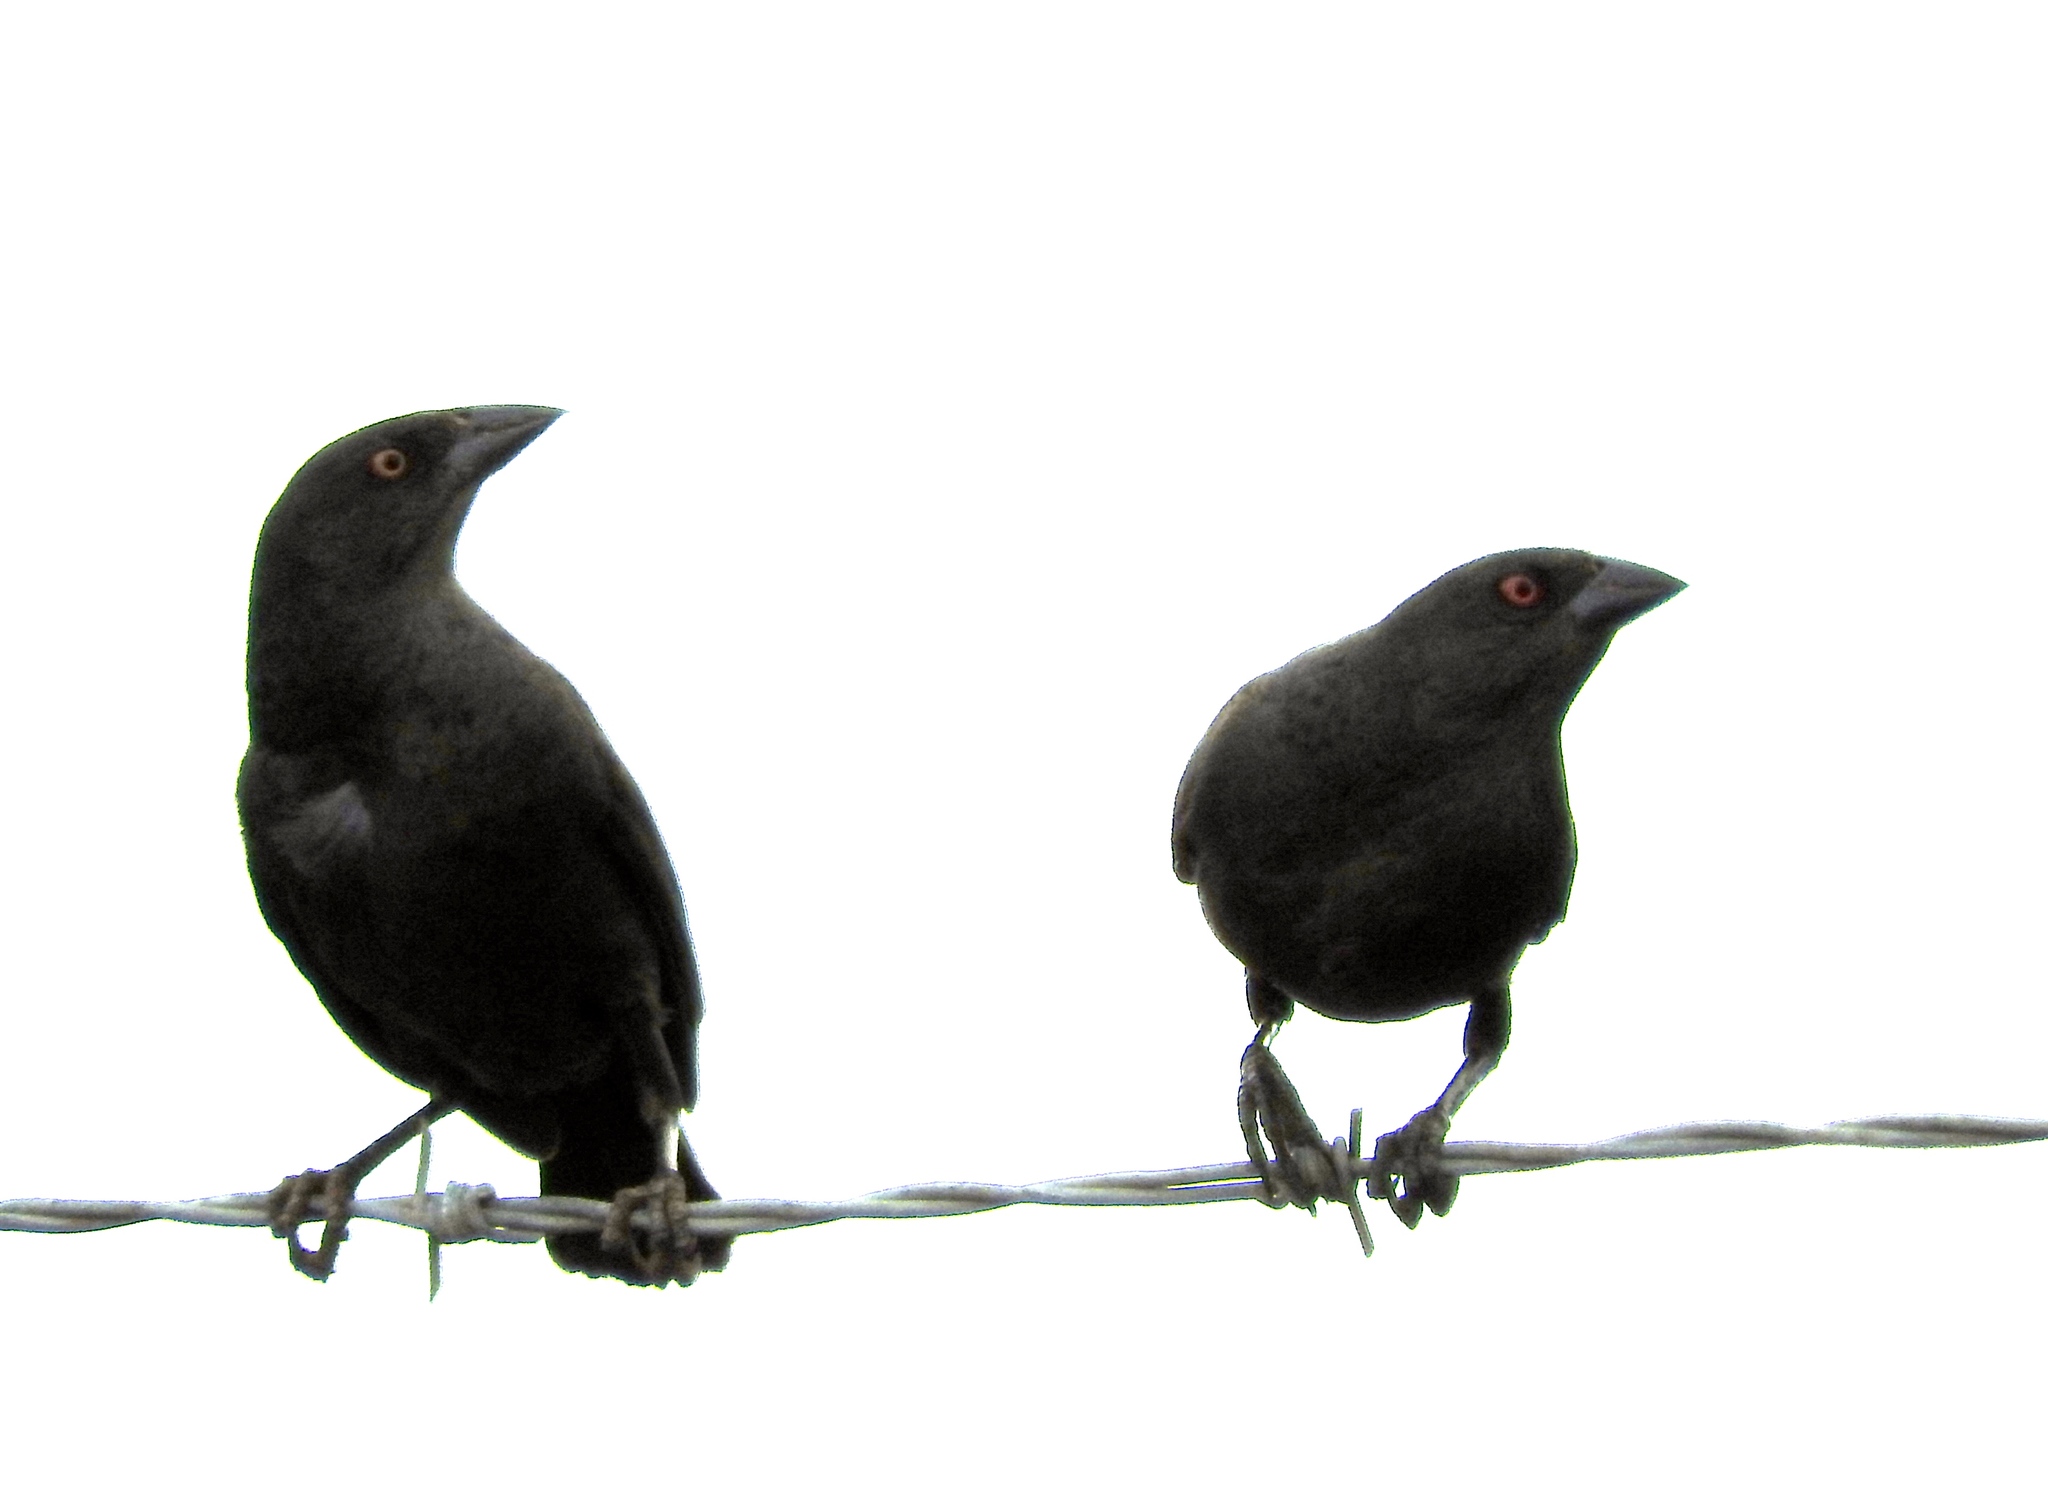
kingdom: Animalia
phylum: Chordata
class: Aves
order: Passeriformes
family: Icteridae
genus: Molothrus
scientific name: Molothrus aeneus
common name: Bronzed cowbird
